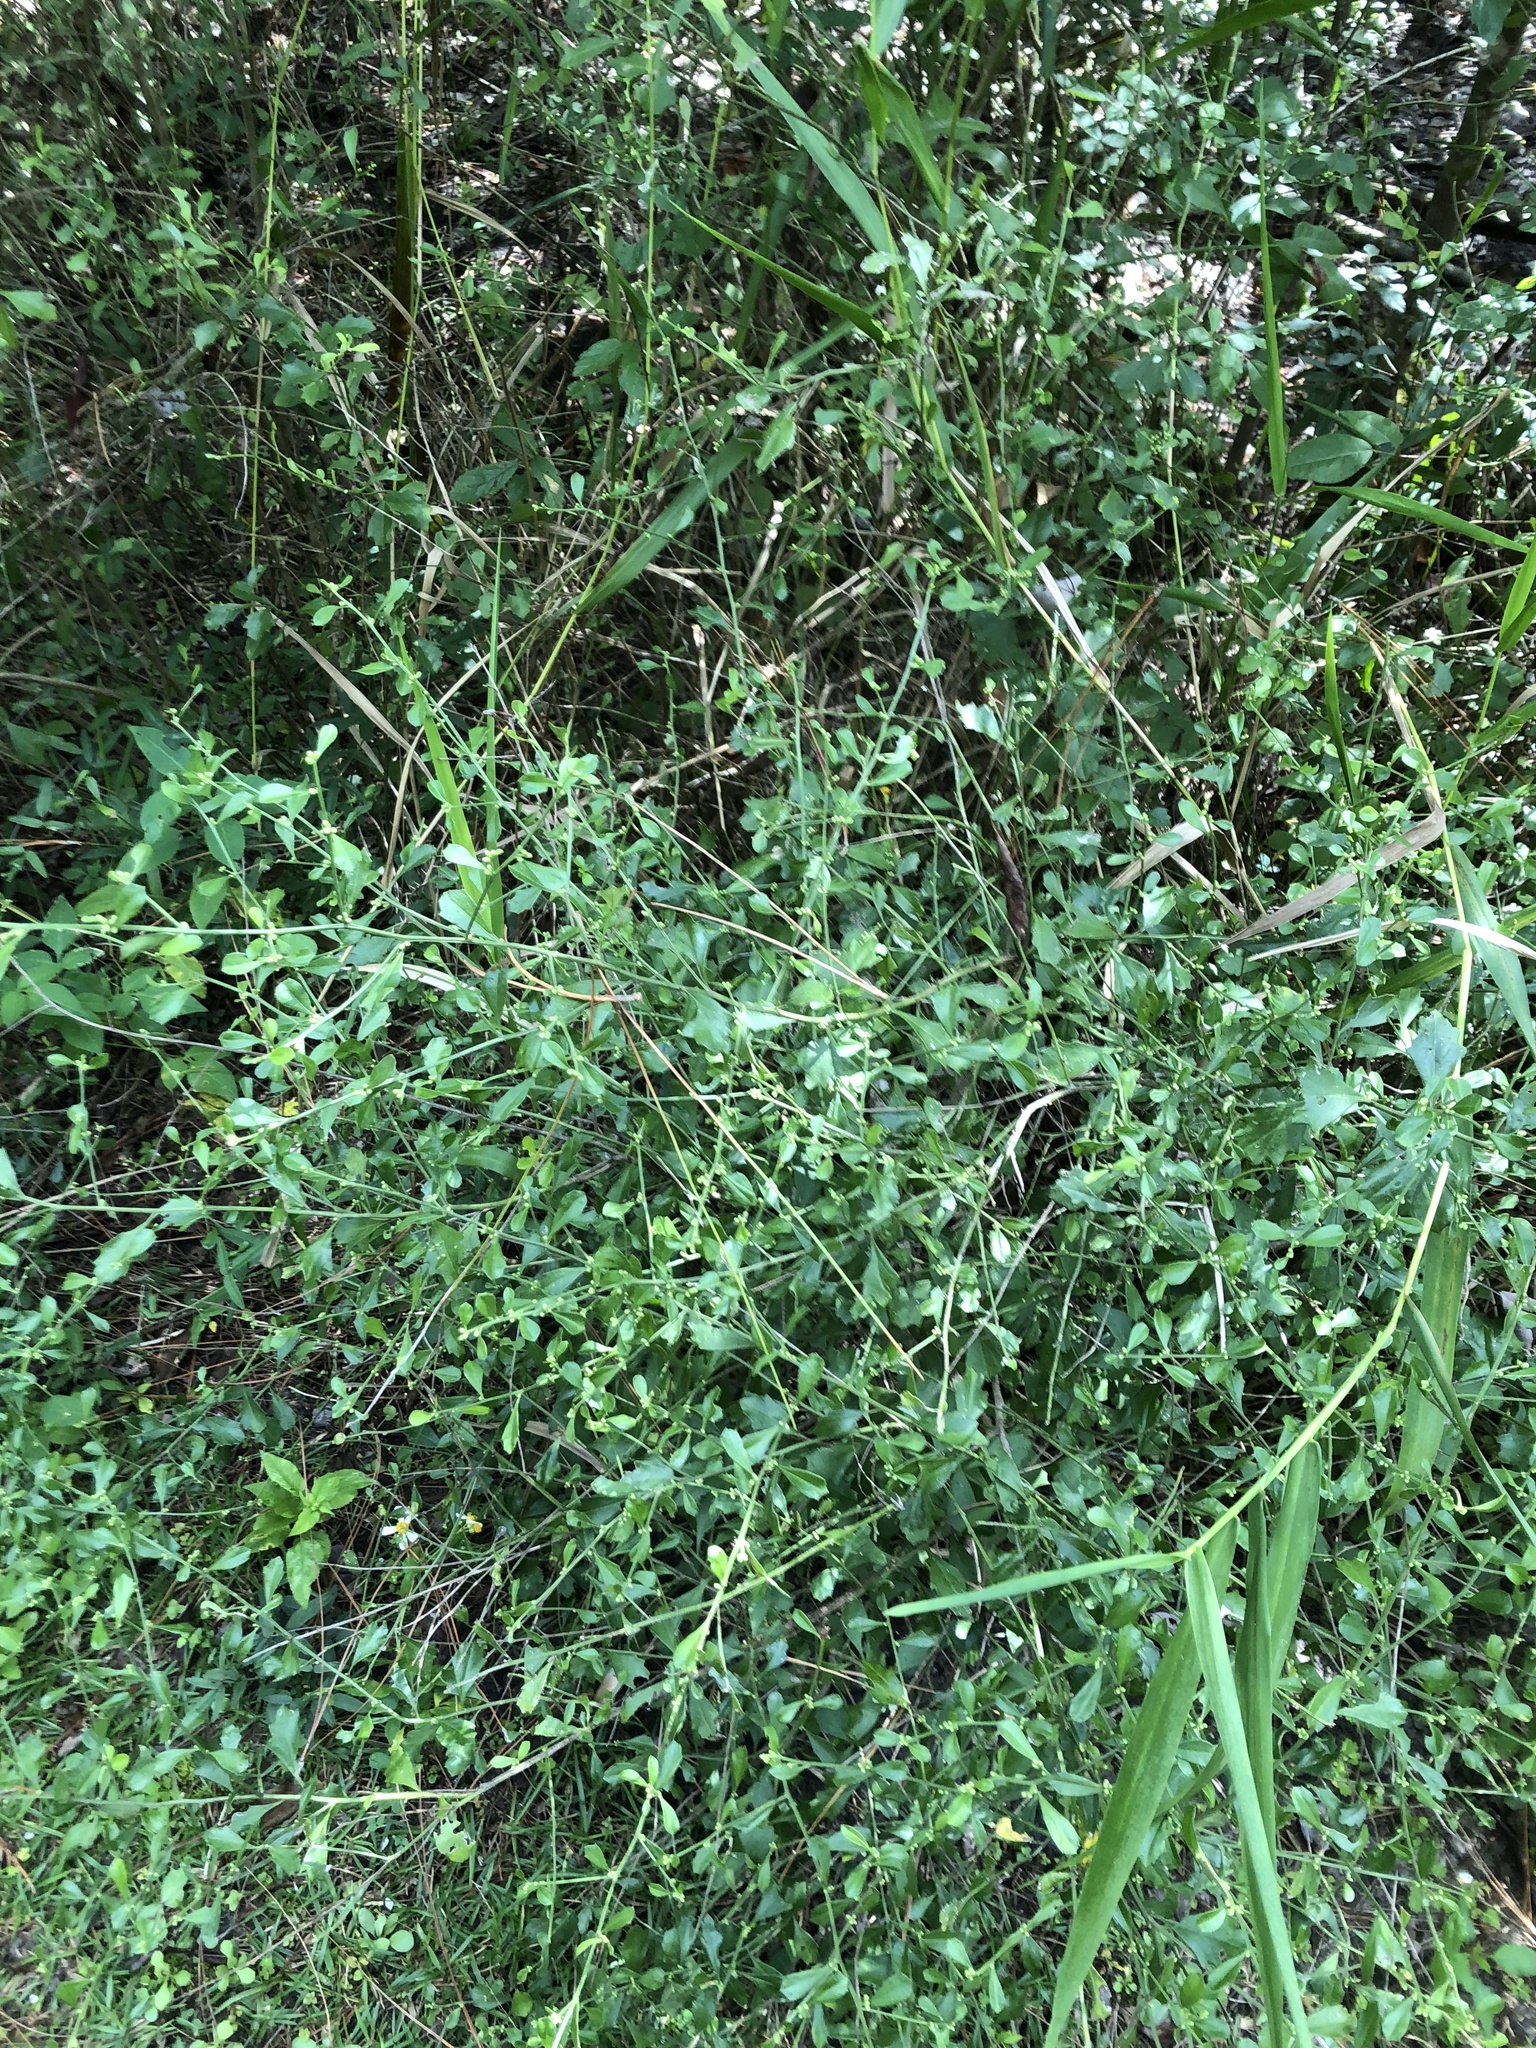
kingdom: Plantae
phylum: Tracheophyta
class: Magnoliopsida
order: Asterales
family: Asteraceae
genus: Baccharis
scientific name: Baccharis glomeruliflora
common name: Silverling groundsel bush
